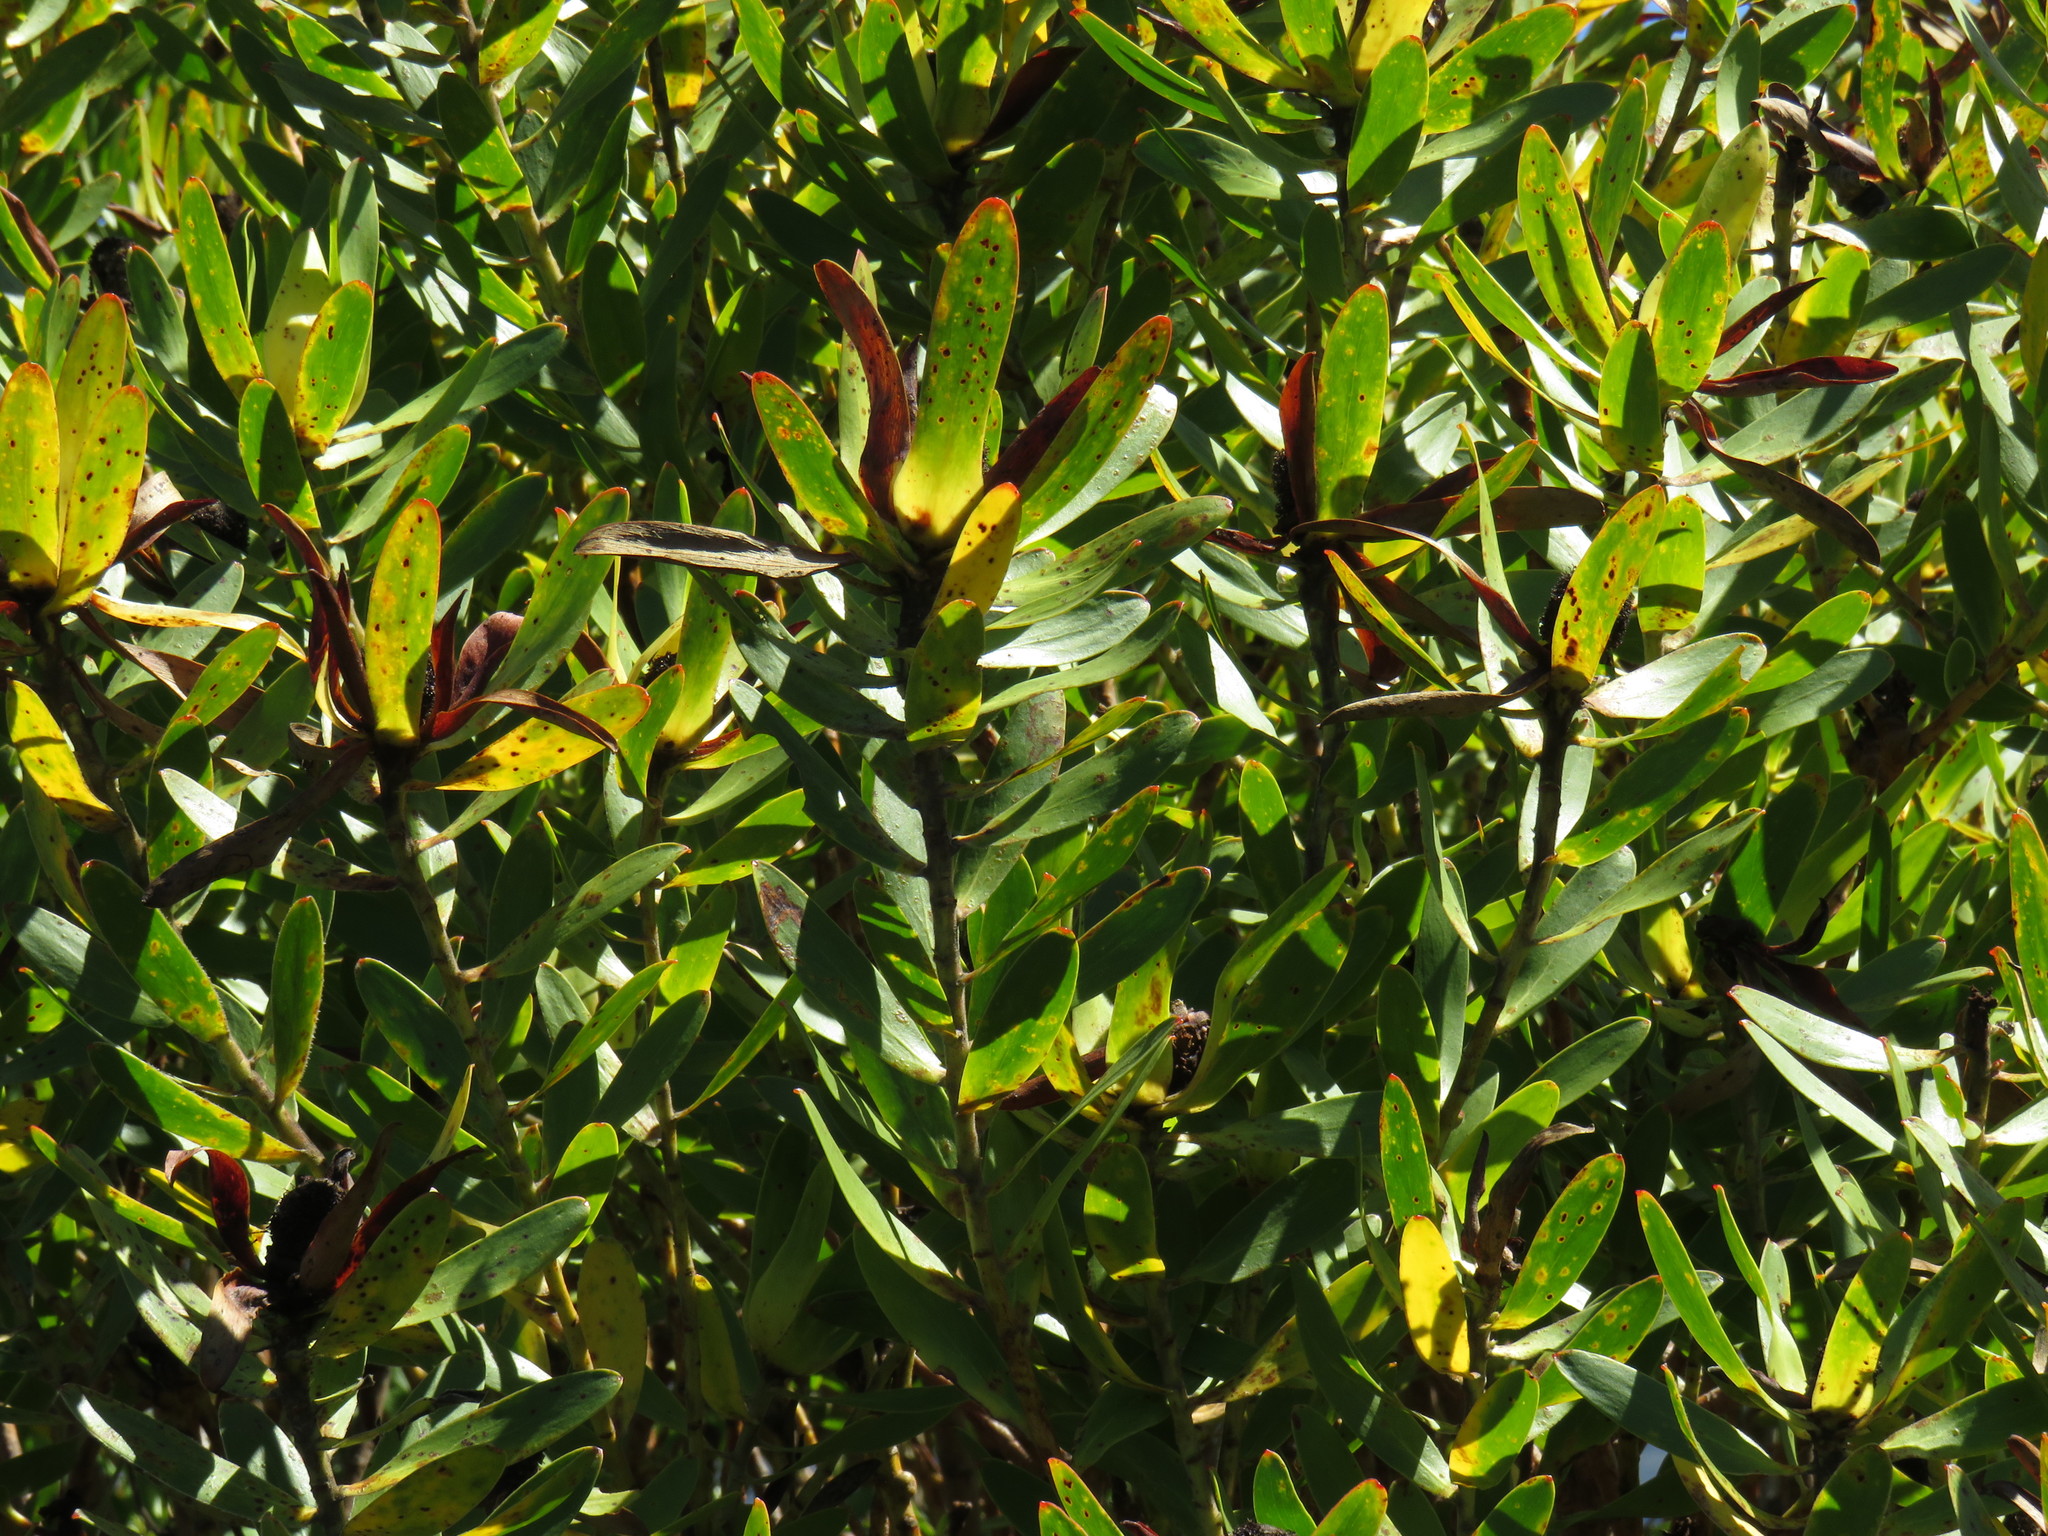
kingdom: Plantae
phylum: Tracheophyta
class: Magnoliopsida
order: Proteales
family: Proteaceae
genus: Leucadendron
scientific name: Leucadendron laureolum
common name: Golden sunshinebush
